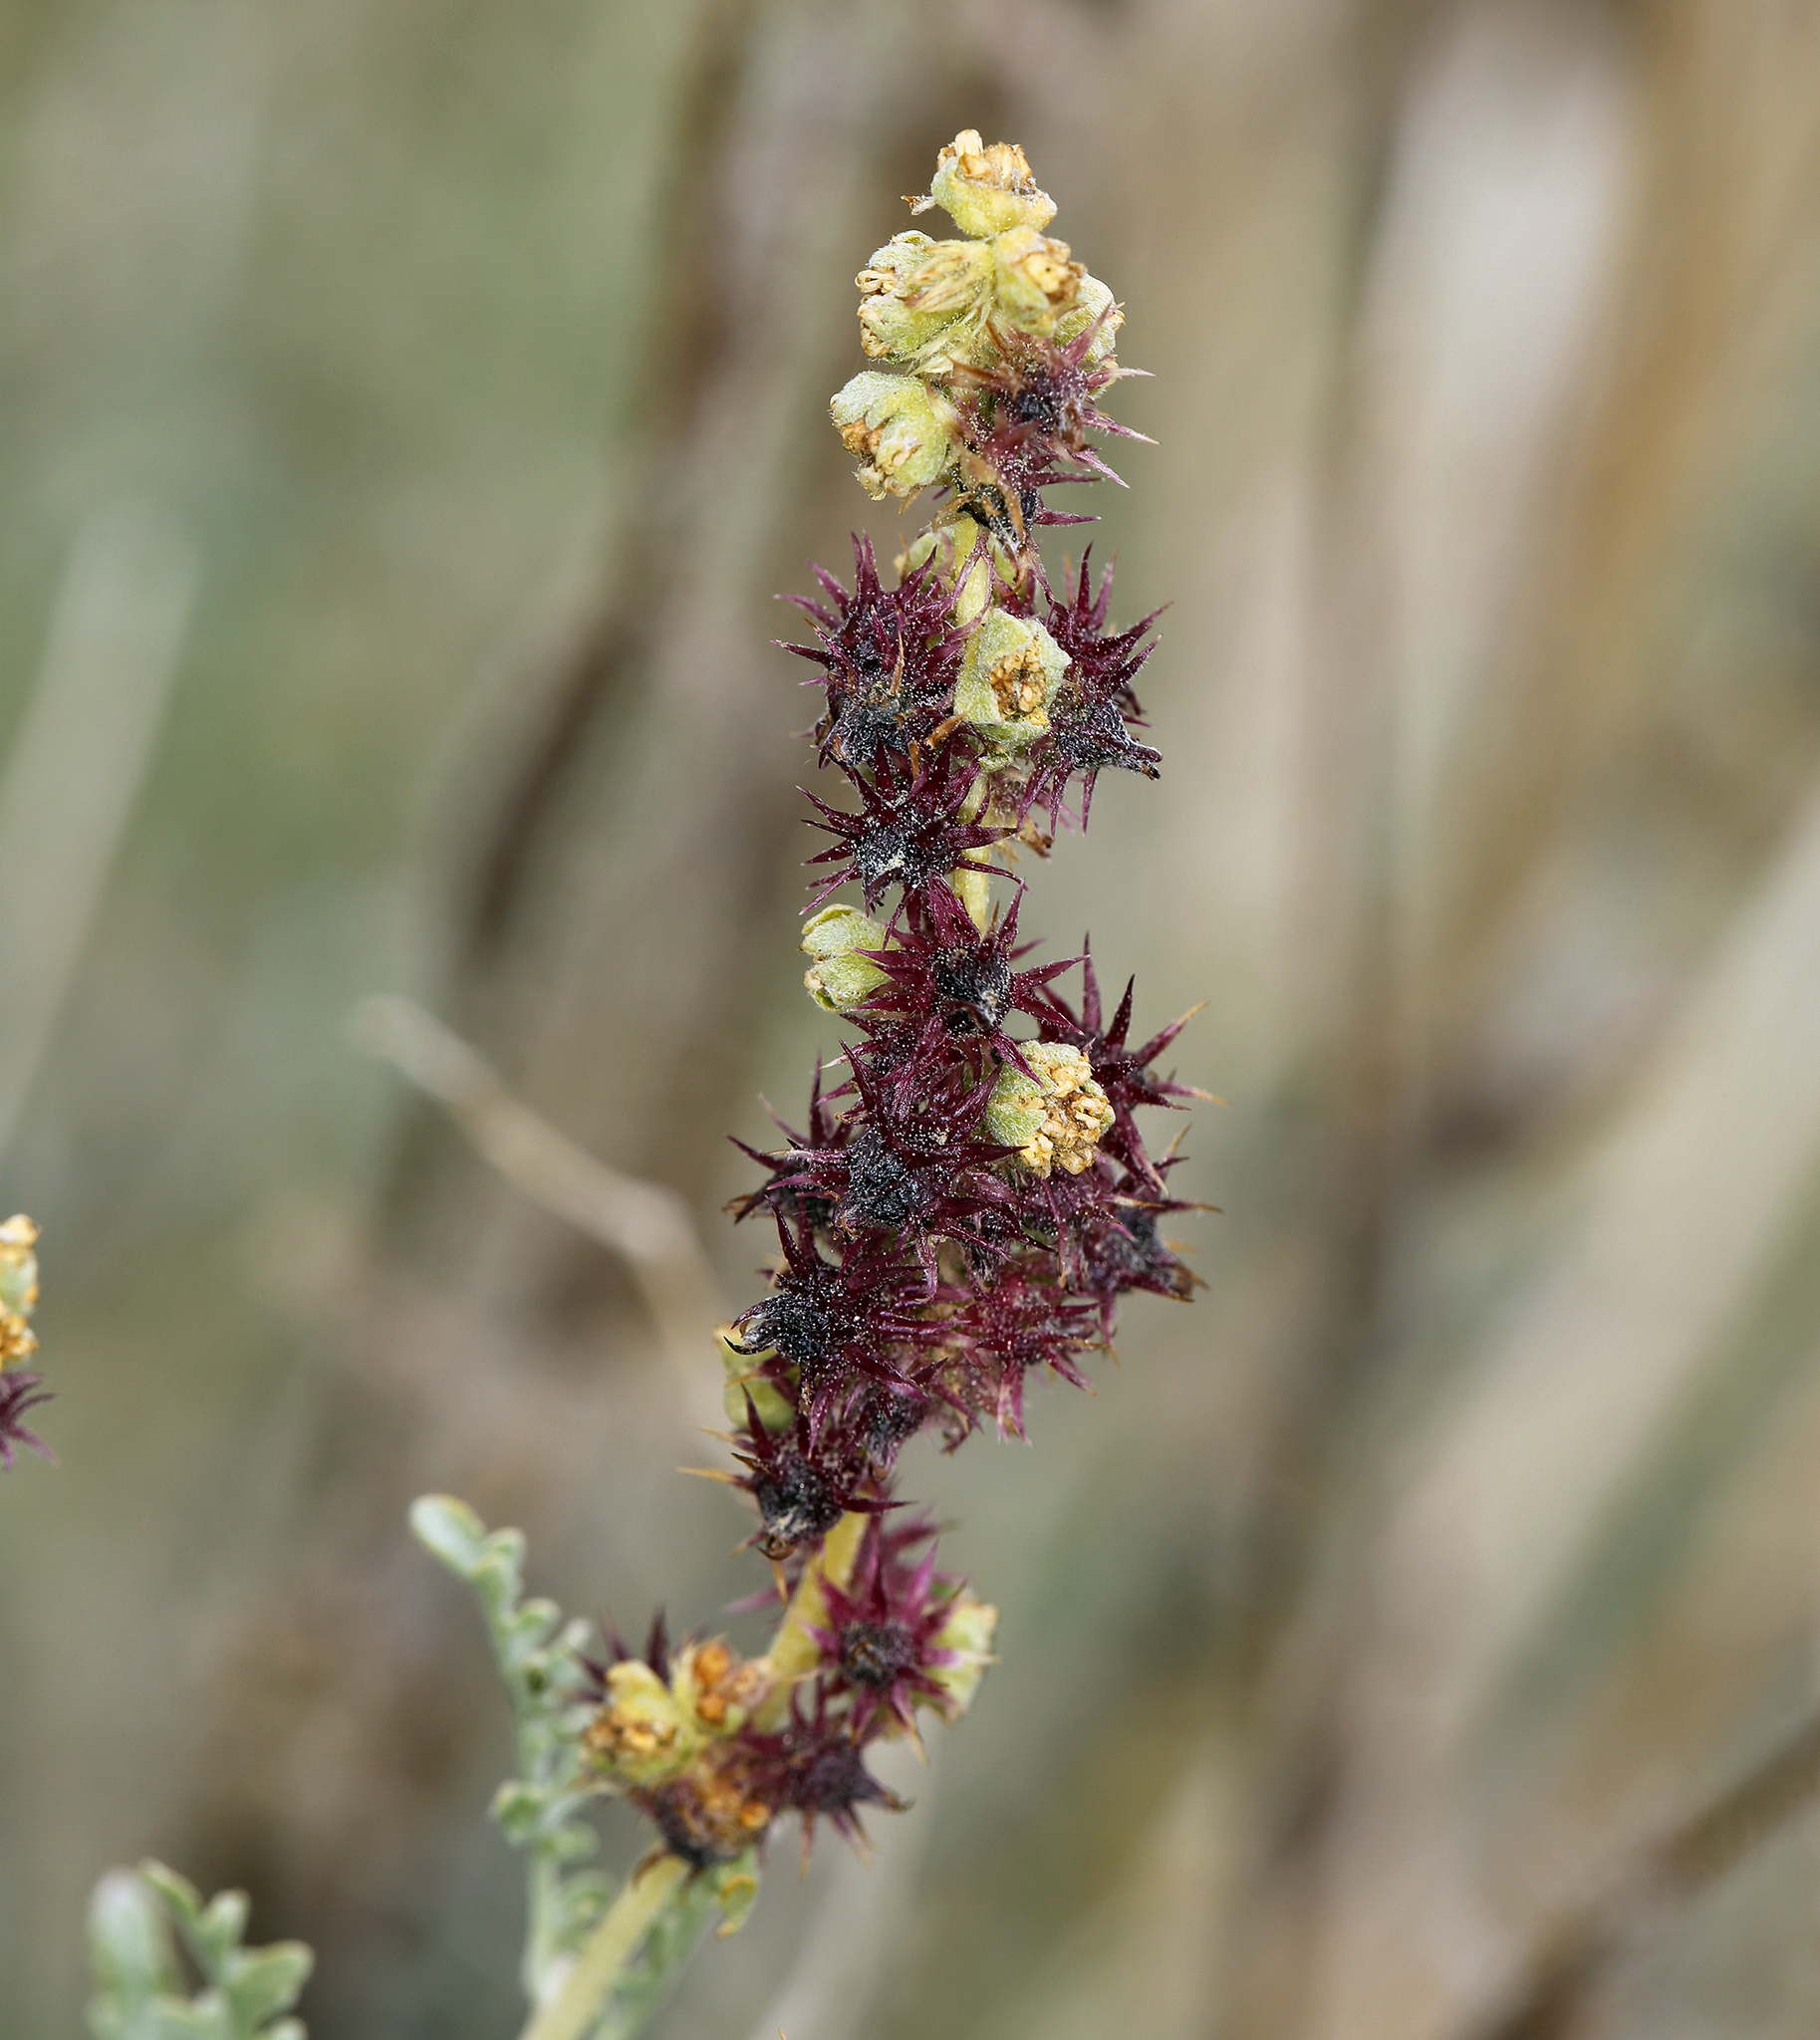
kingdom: Plantae
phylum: Tracheophyta
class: Magnoliopsida
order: Asterales
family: Asteraceae
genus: Ambrosia
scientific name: Ambrosia dumosa
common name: Bur-sage
